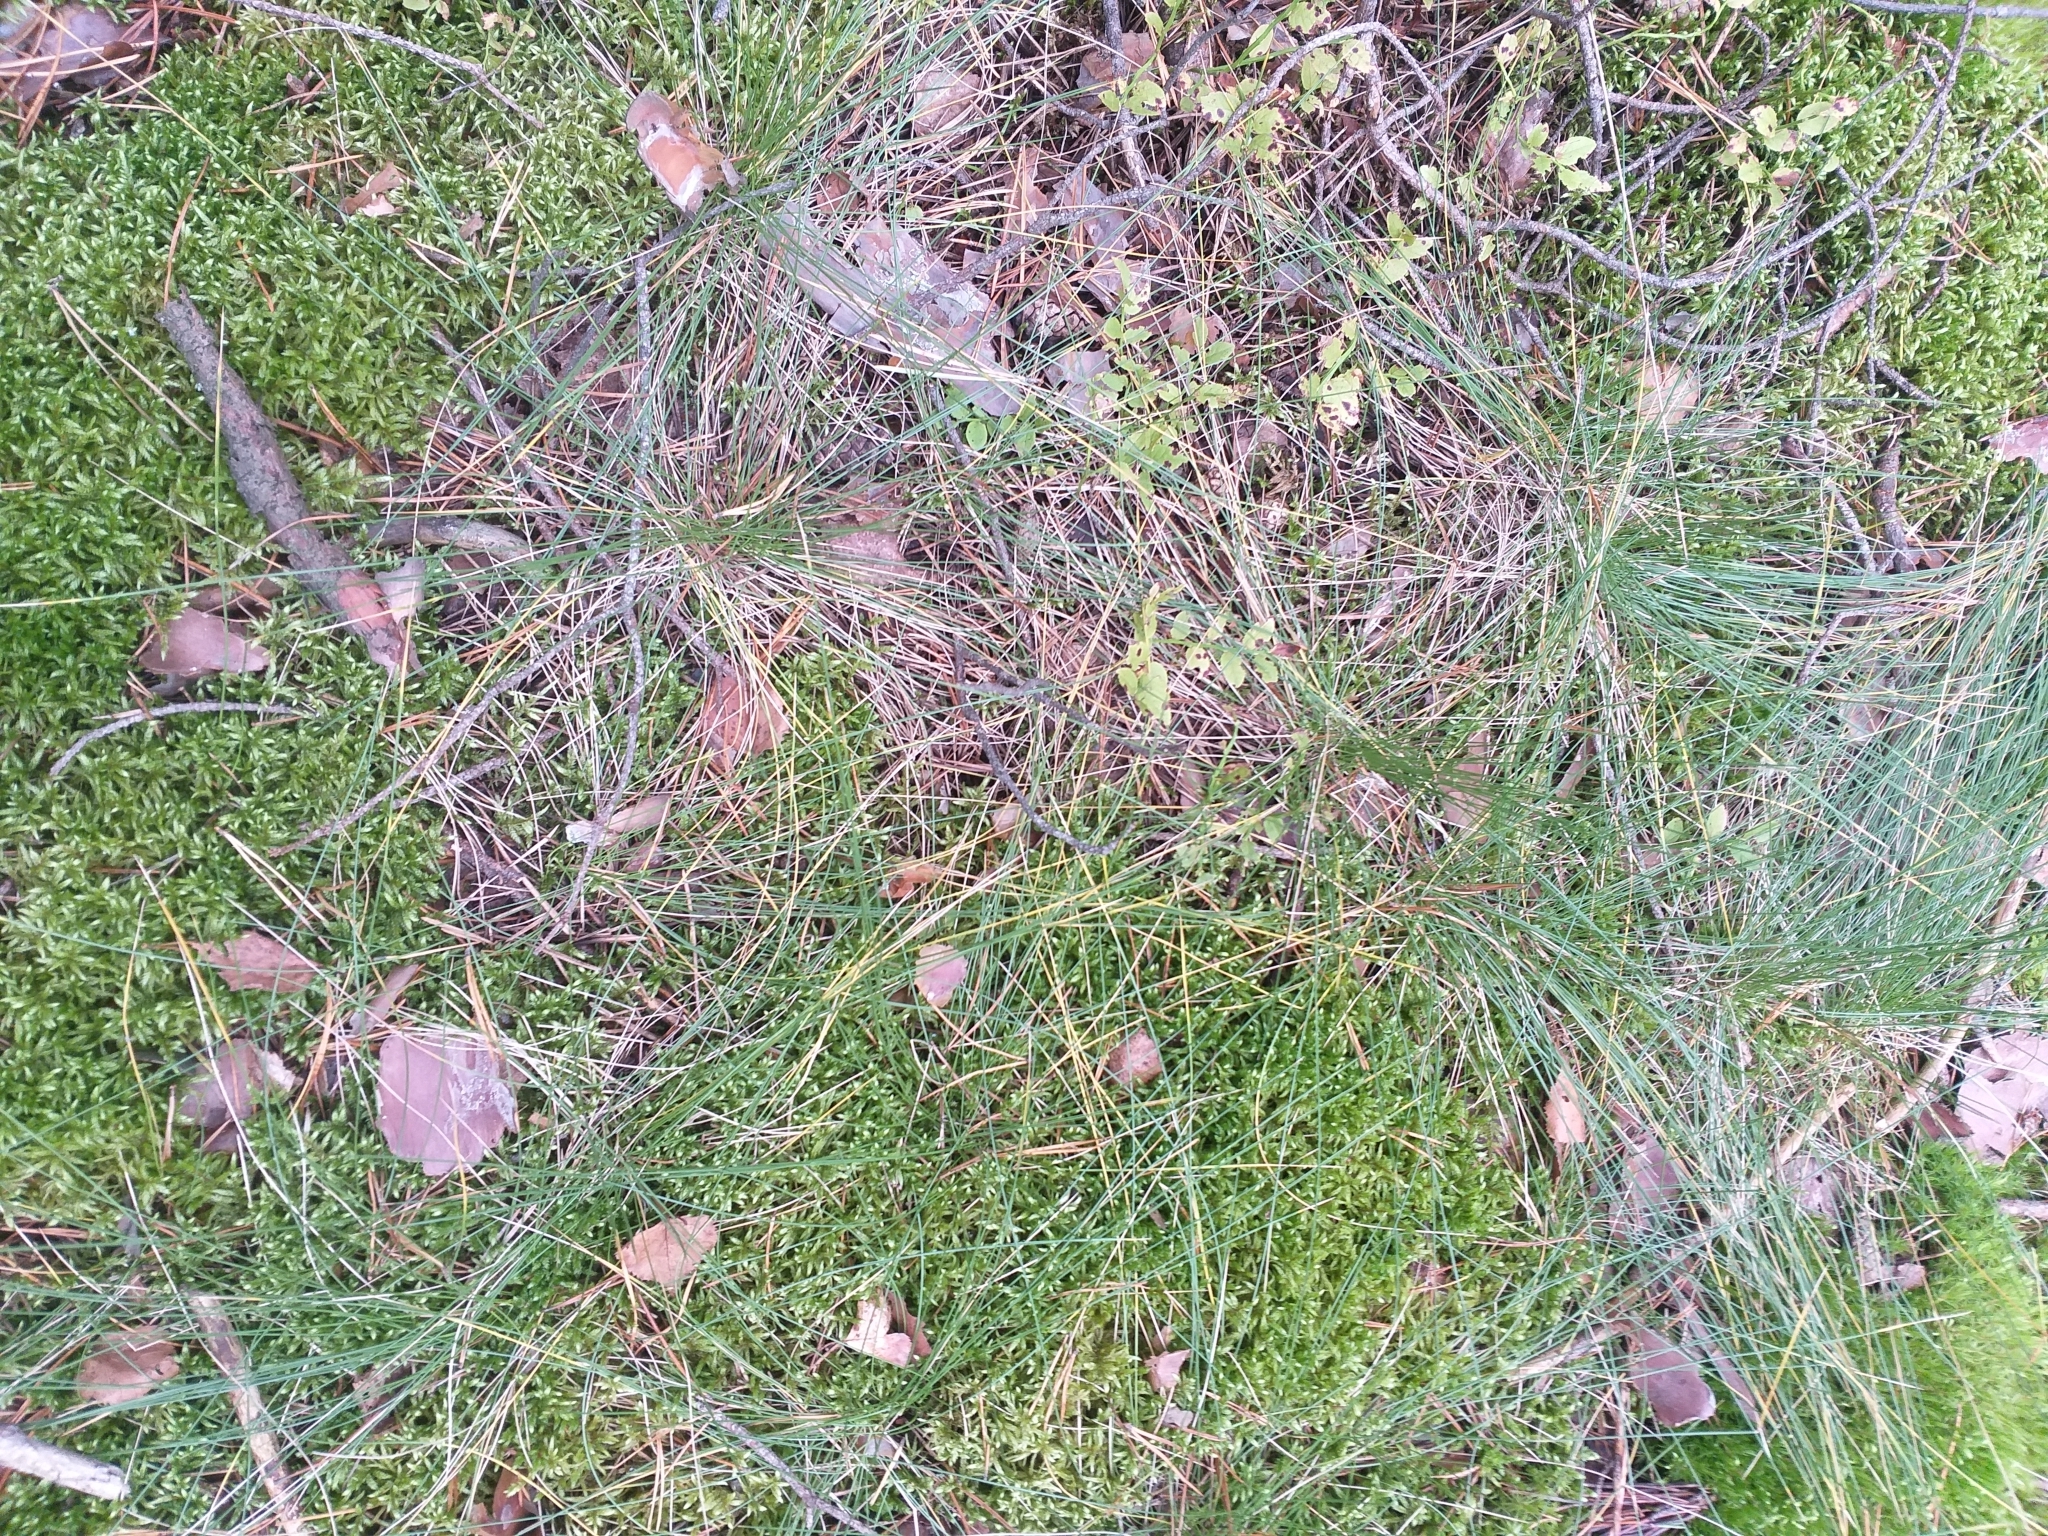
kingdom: Plantae
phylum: Tracheophyta
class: Liliopsida
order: Poales
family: Poaceae
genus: Nardus
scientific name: Nardus stricta
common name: Mat-grass
